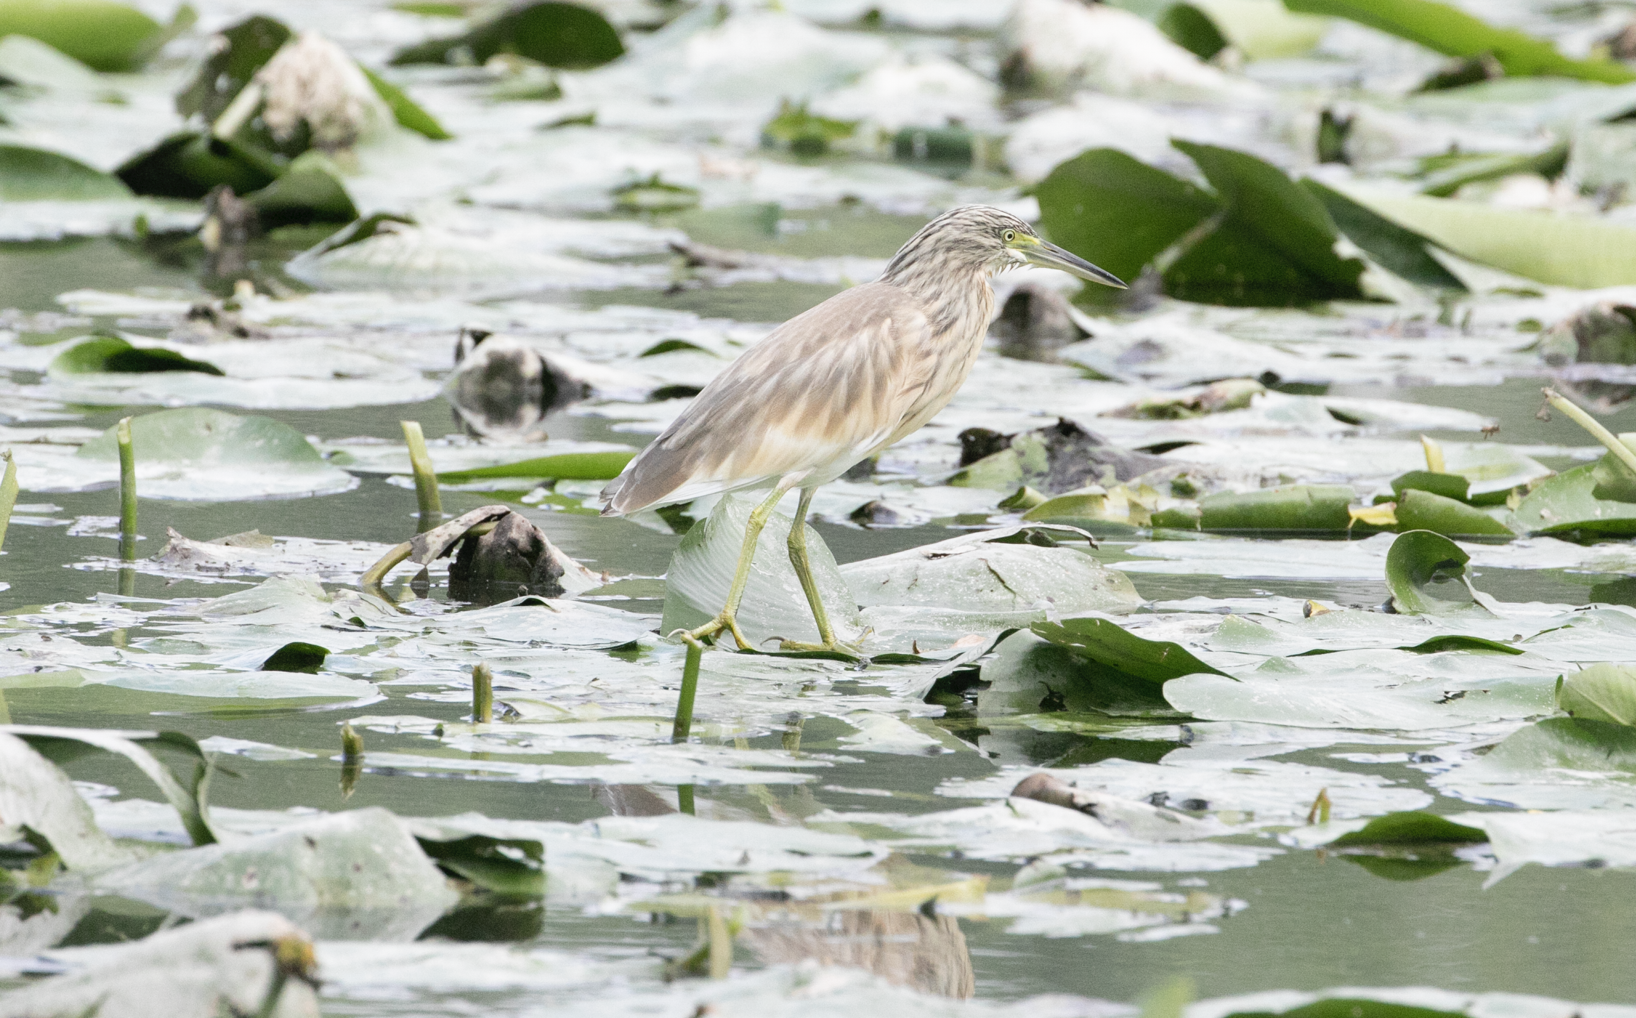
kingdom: Animalia
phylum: Chordata
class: Aves
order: Pelecaniformes
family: Ardeidae
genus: Ardeola
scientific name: Ardeola ralloides
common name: Squacco heron
